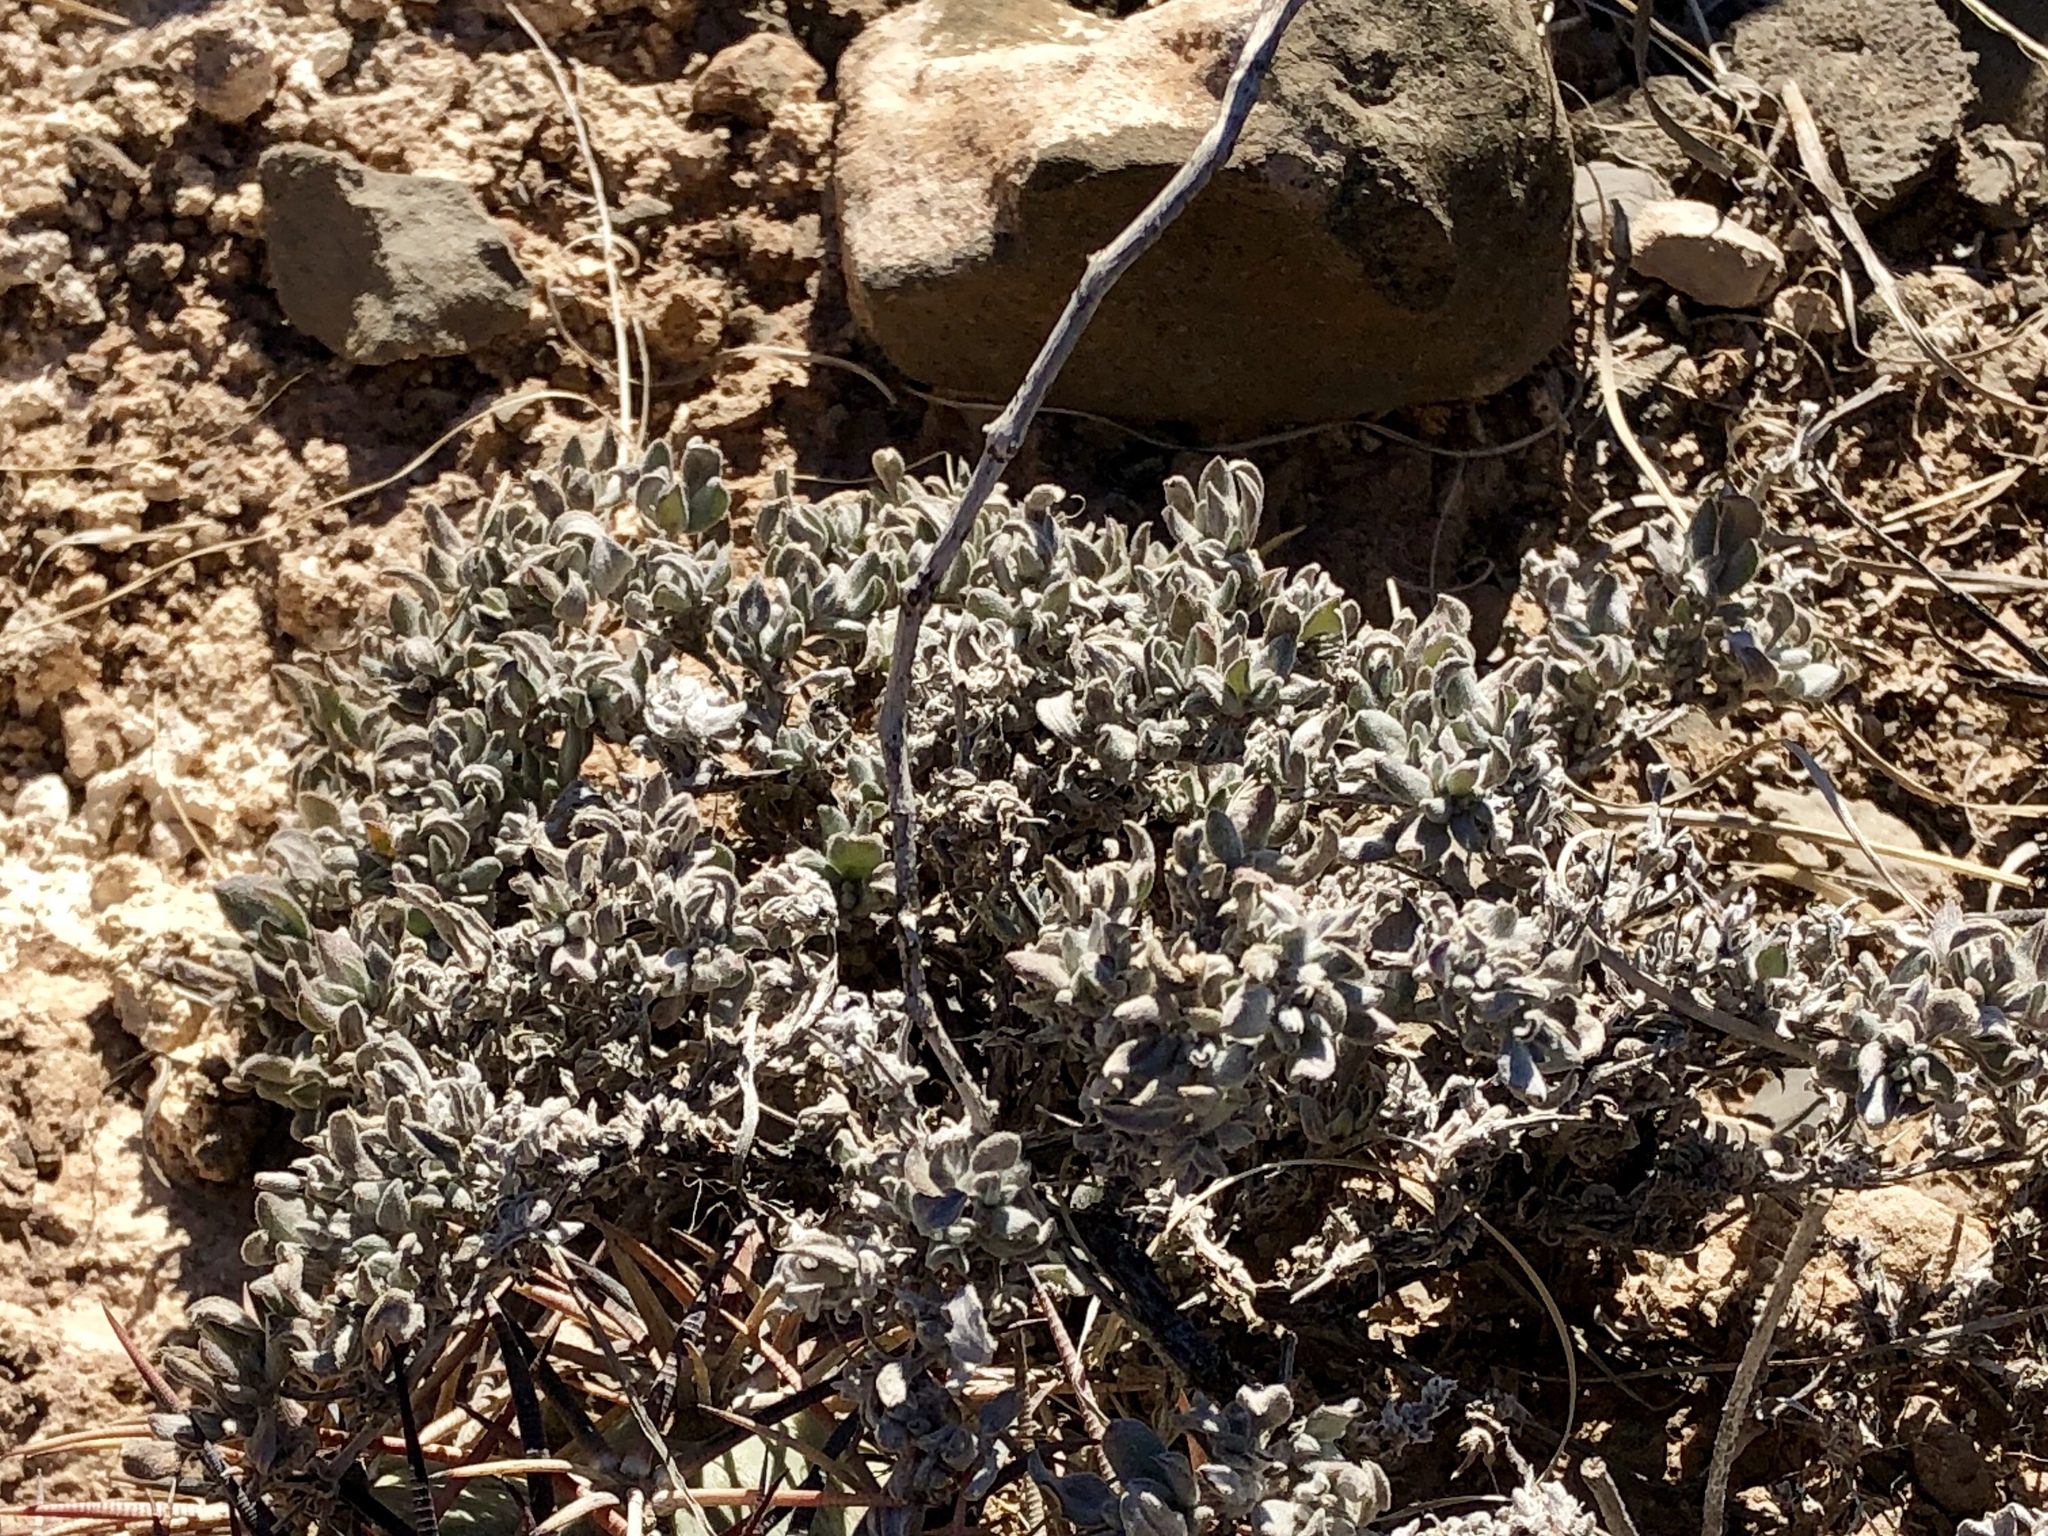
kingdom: Plantae
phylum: Tracheophyta
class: Magnoliopsida
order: Boraginales
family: Ehretiaceae
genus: Tiquilia
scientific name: Tiquilia canescens
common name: Hairy tiquilia
